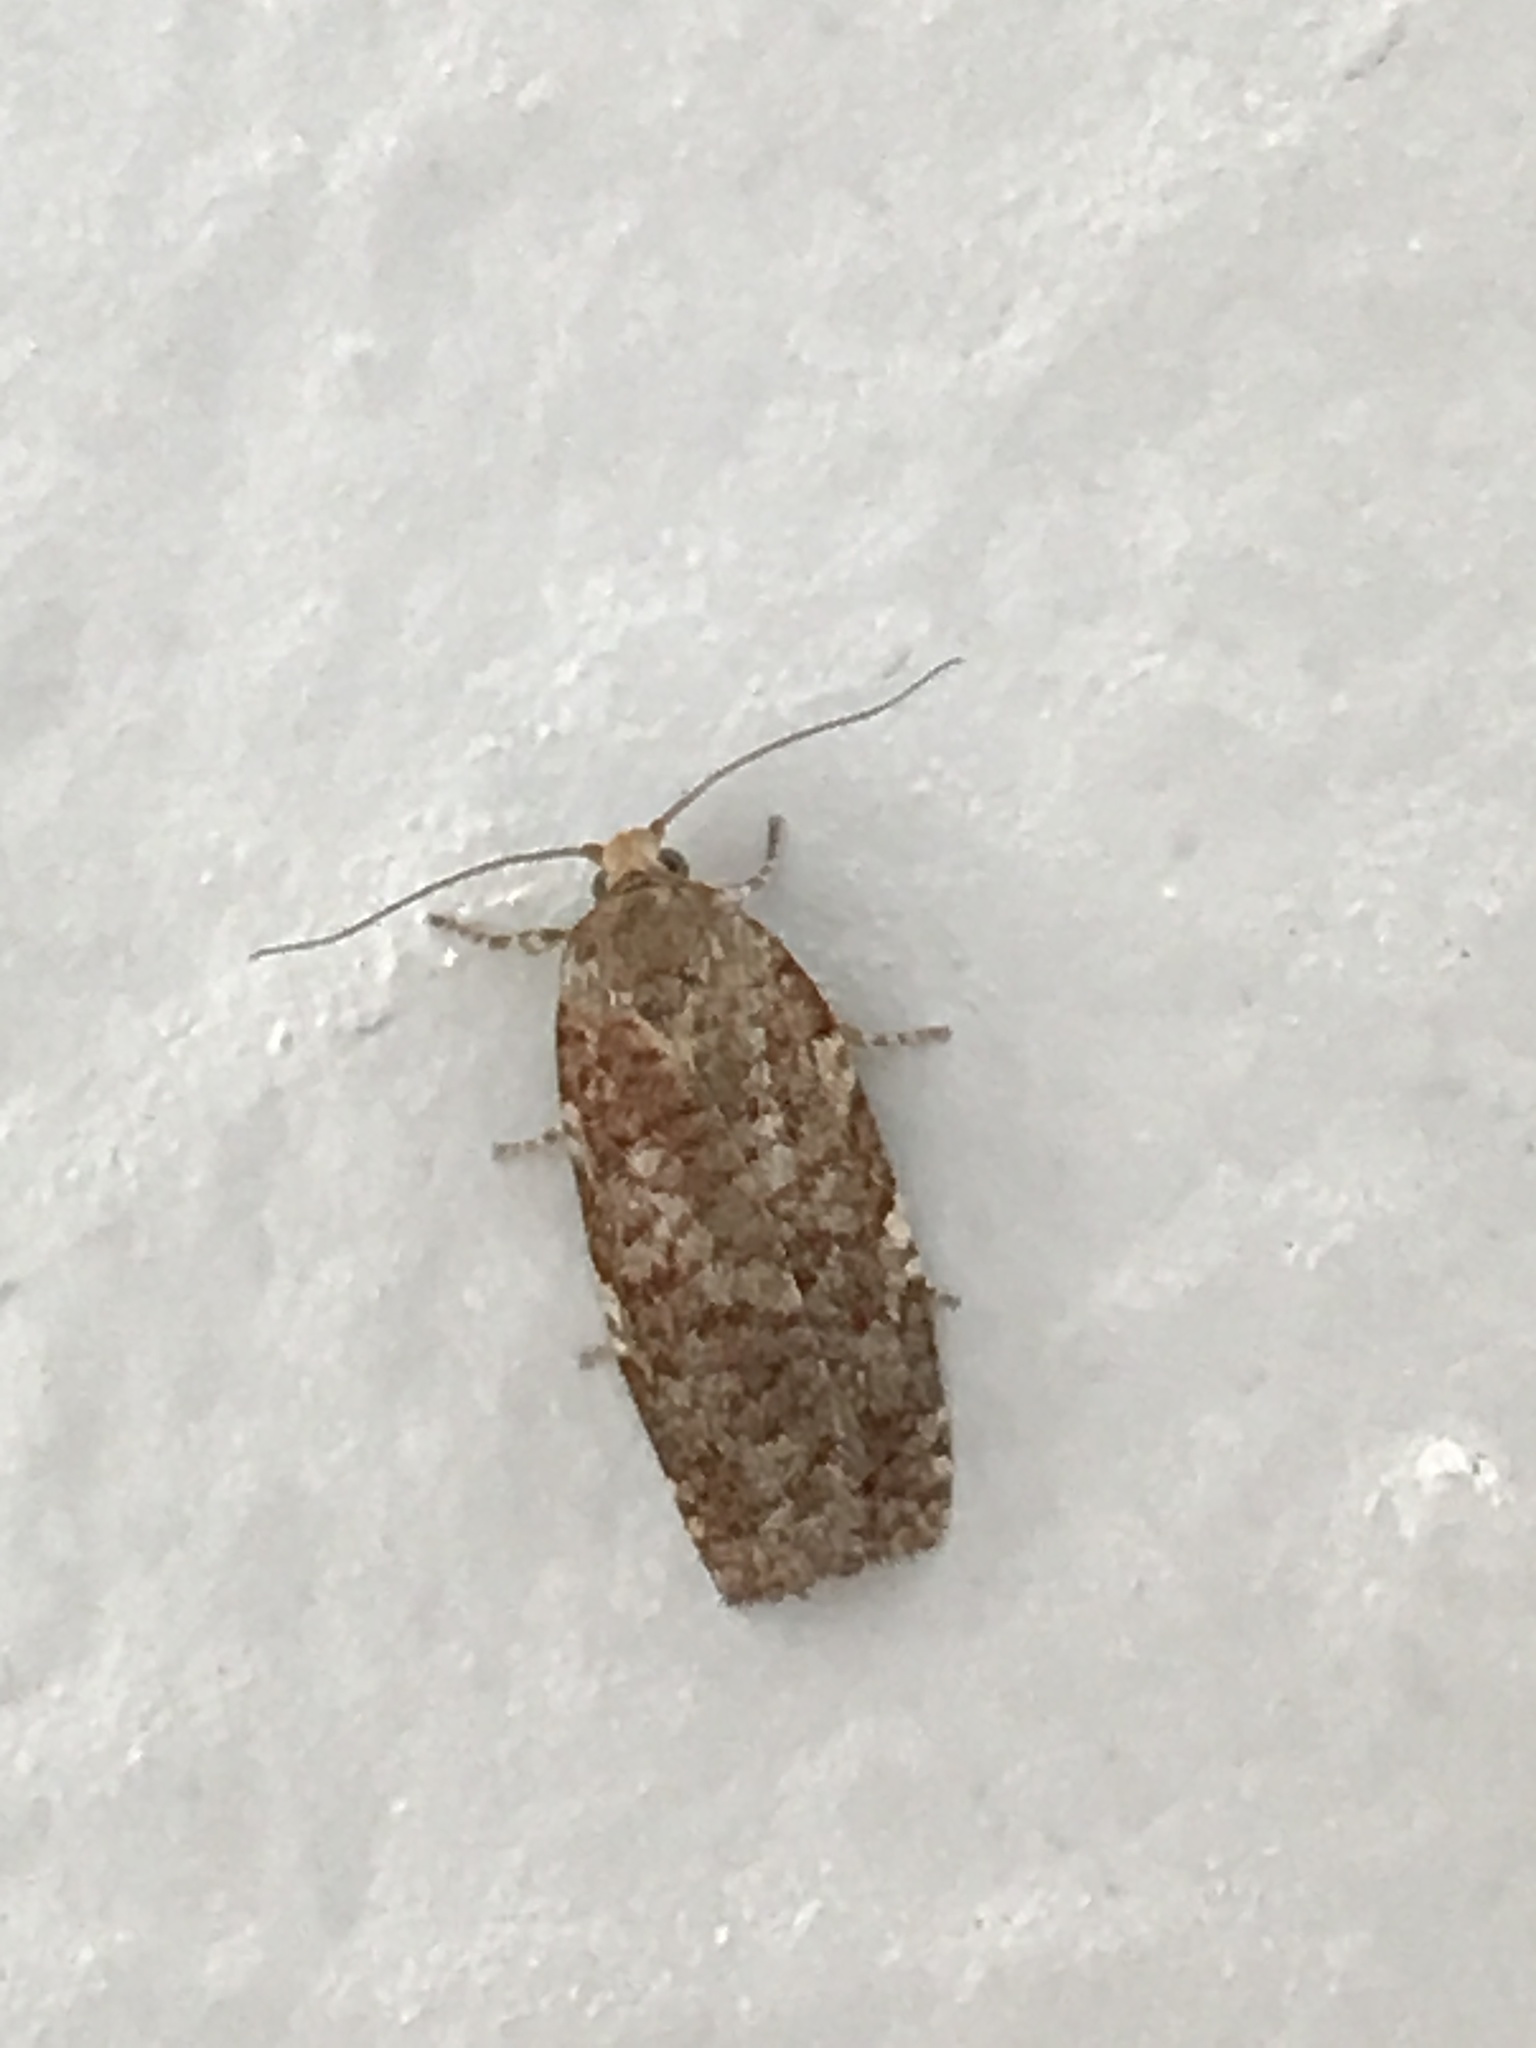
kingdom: Animalia
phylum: Arthropoda
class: Insecta
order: Lepidoptera
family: Tortricidae
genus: Choristoneura
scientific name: Choristoneura fumiferana
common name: Spruce budworm
